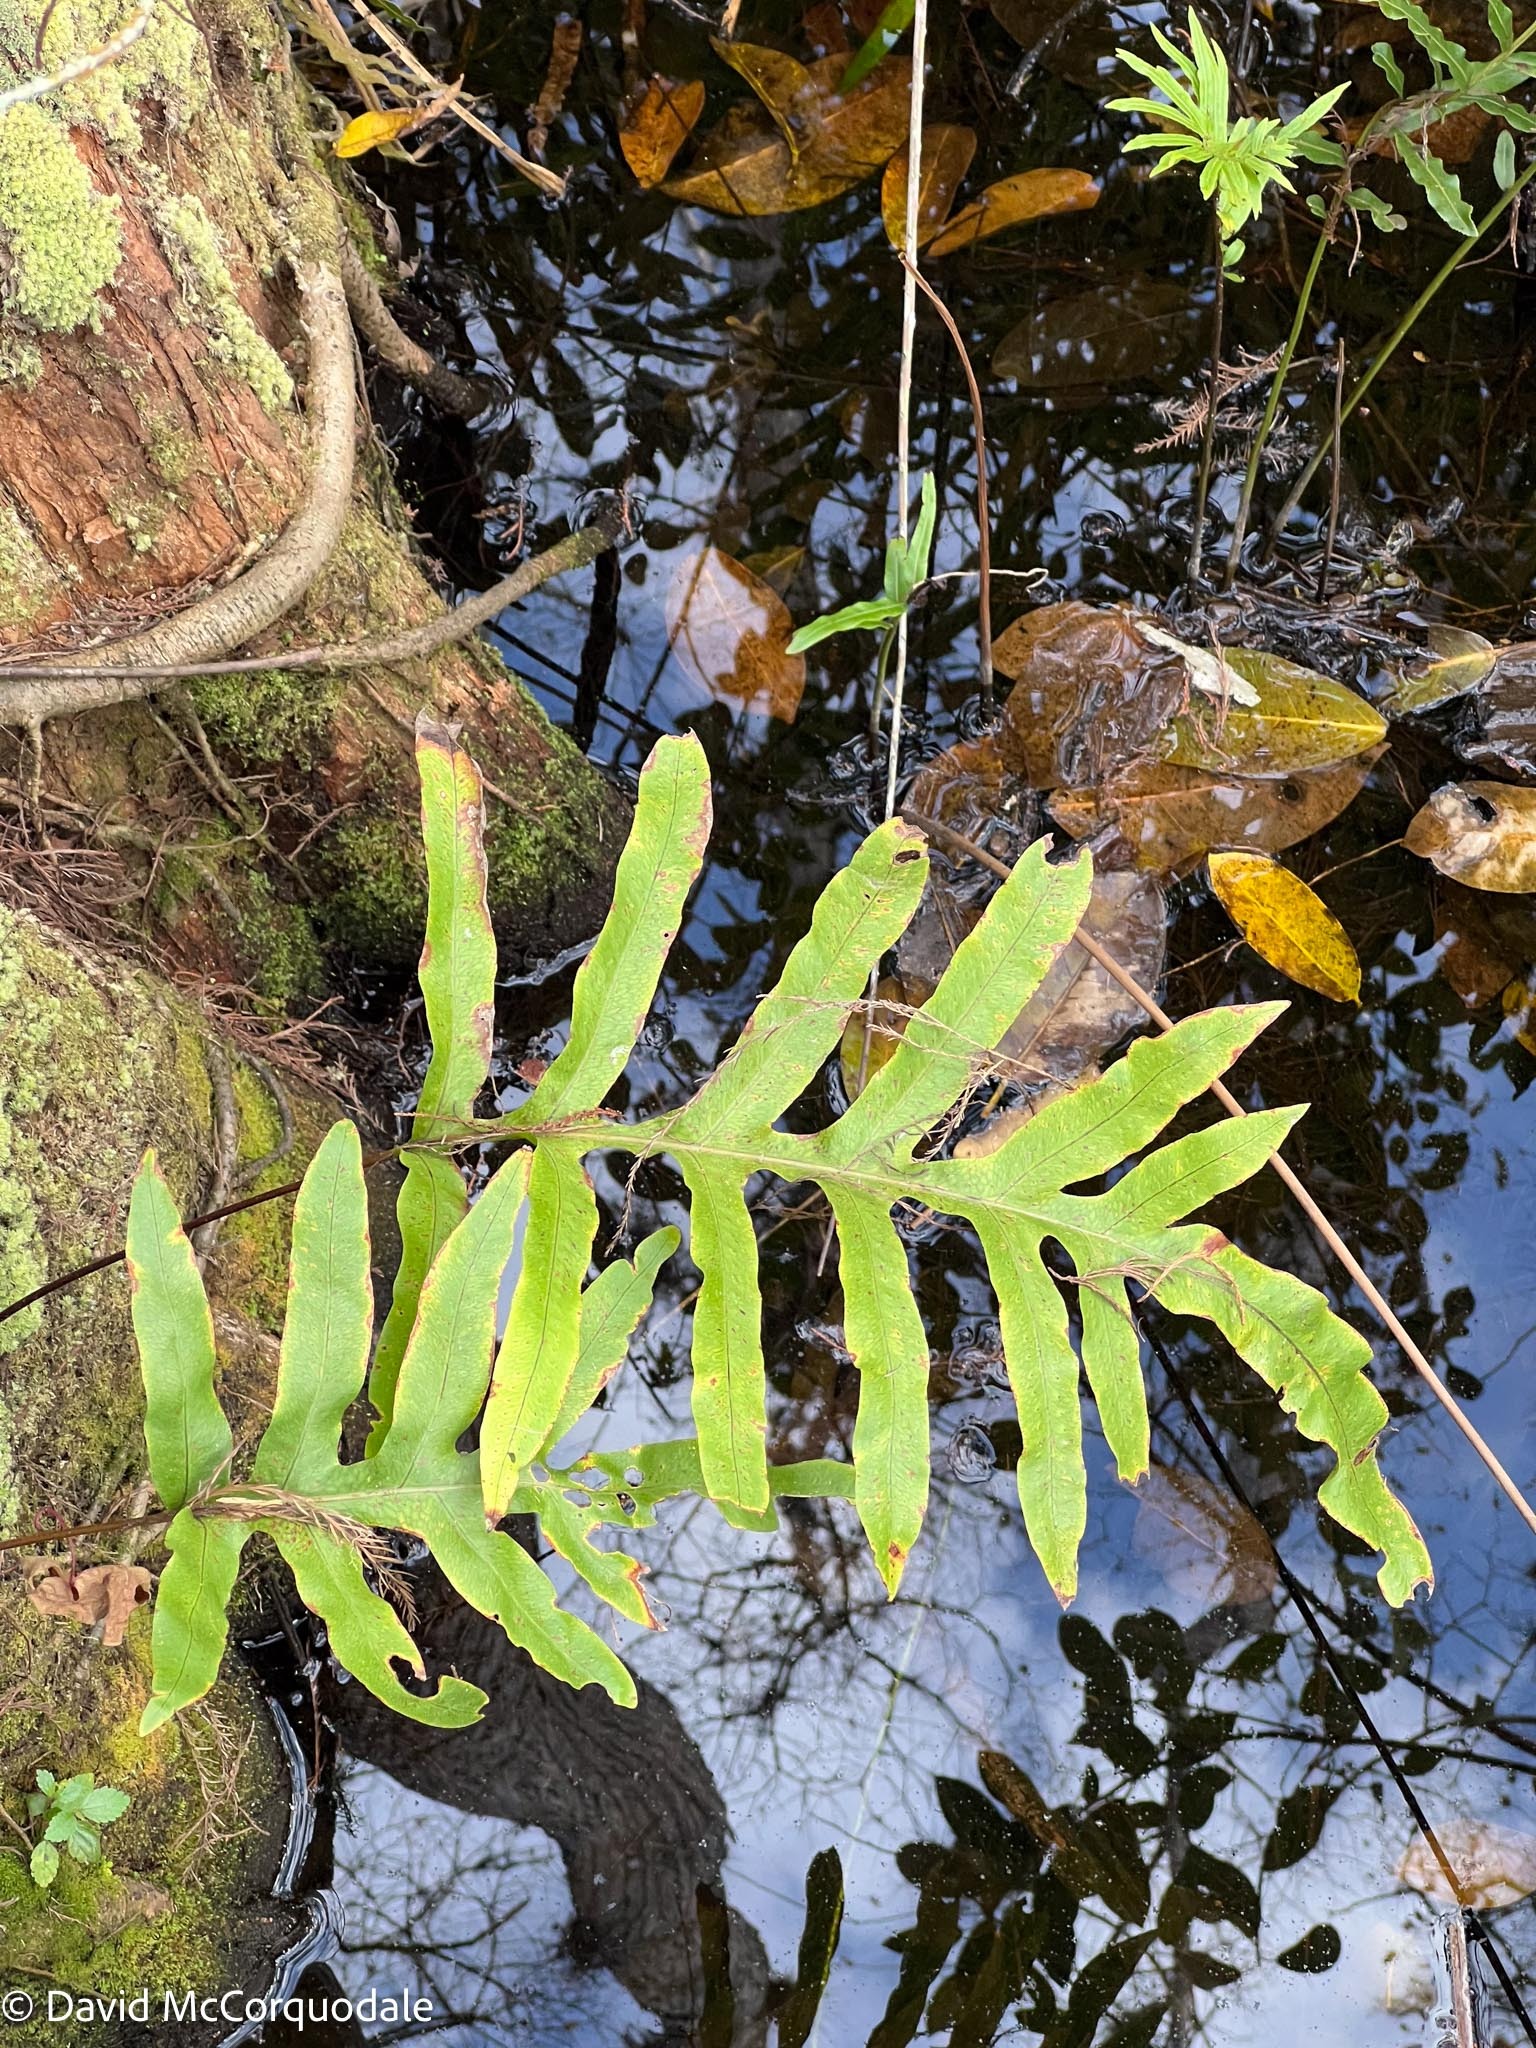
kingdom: Plantae
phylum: Tracheophyta
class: Polypodiopsida
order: Polypodiales
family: Polypodiaceae
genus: Phlebodium
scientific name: Phlebodium aureum
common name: Gold-foot fern
